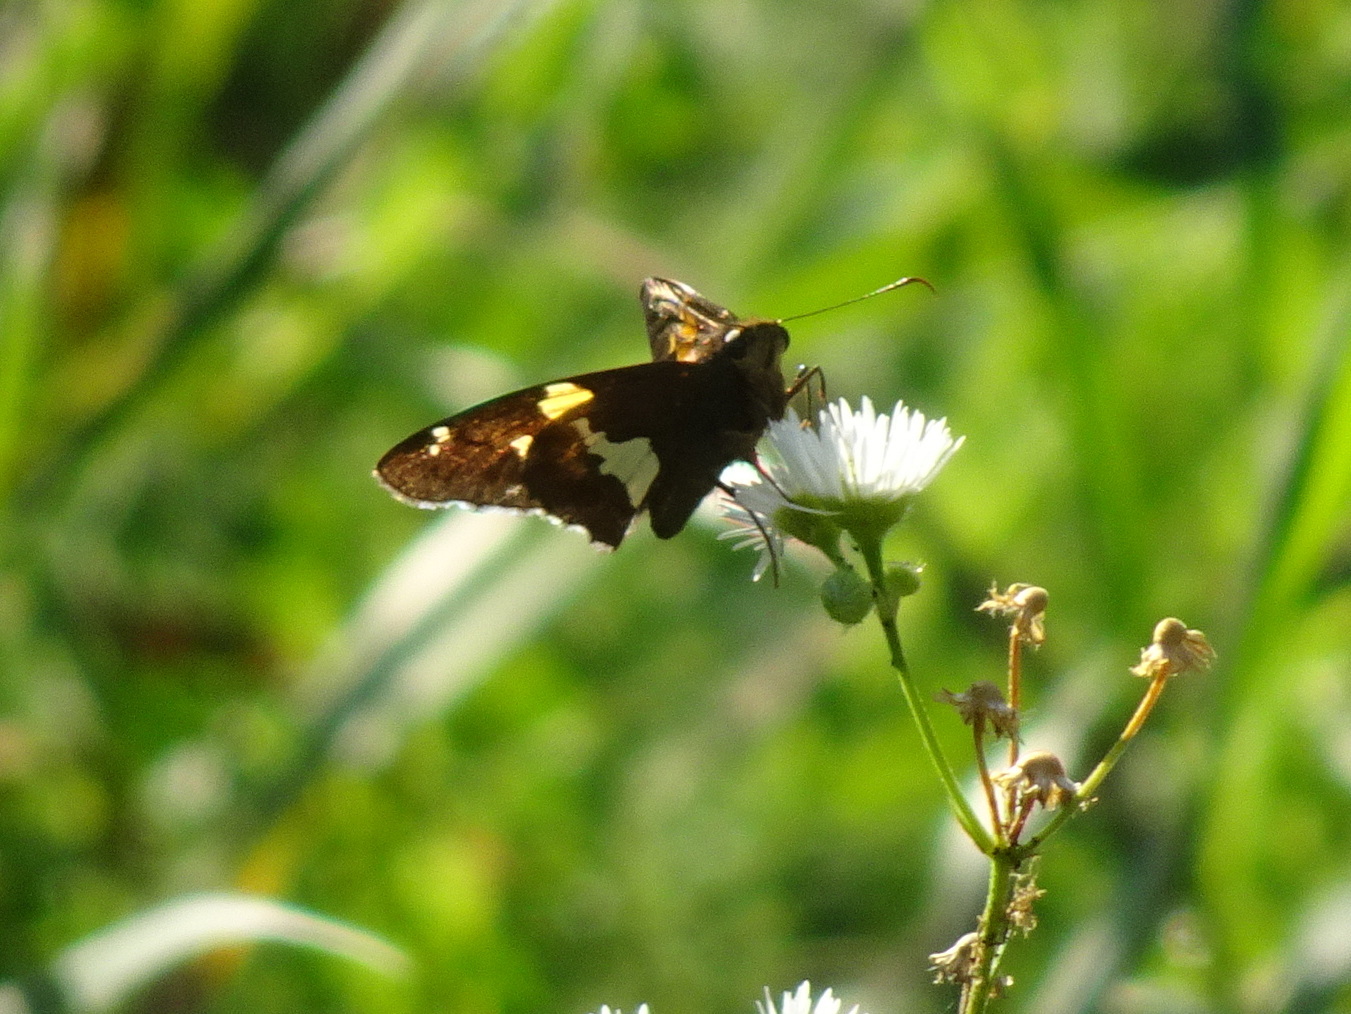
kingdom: Animalia
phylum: Arthropoda
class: Insecta
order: Lepidoptera
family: Hesperiidae
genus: Epargyreus
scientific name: Epargyreus clarus
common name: Silver-spotted skipper
